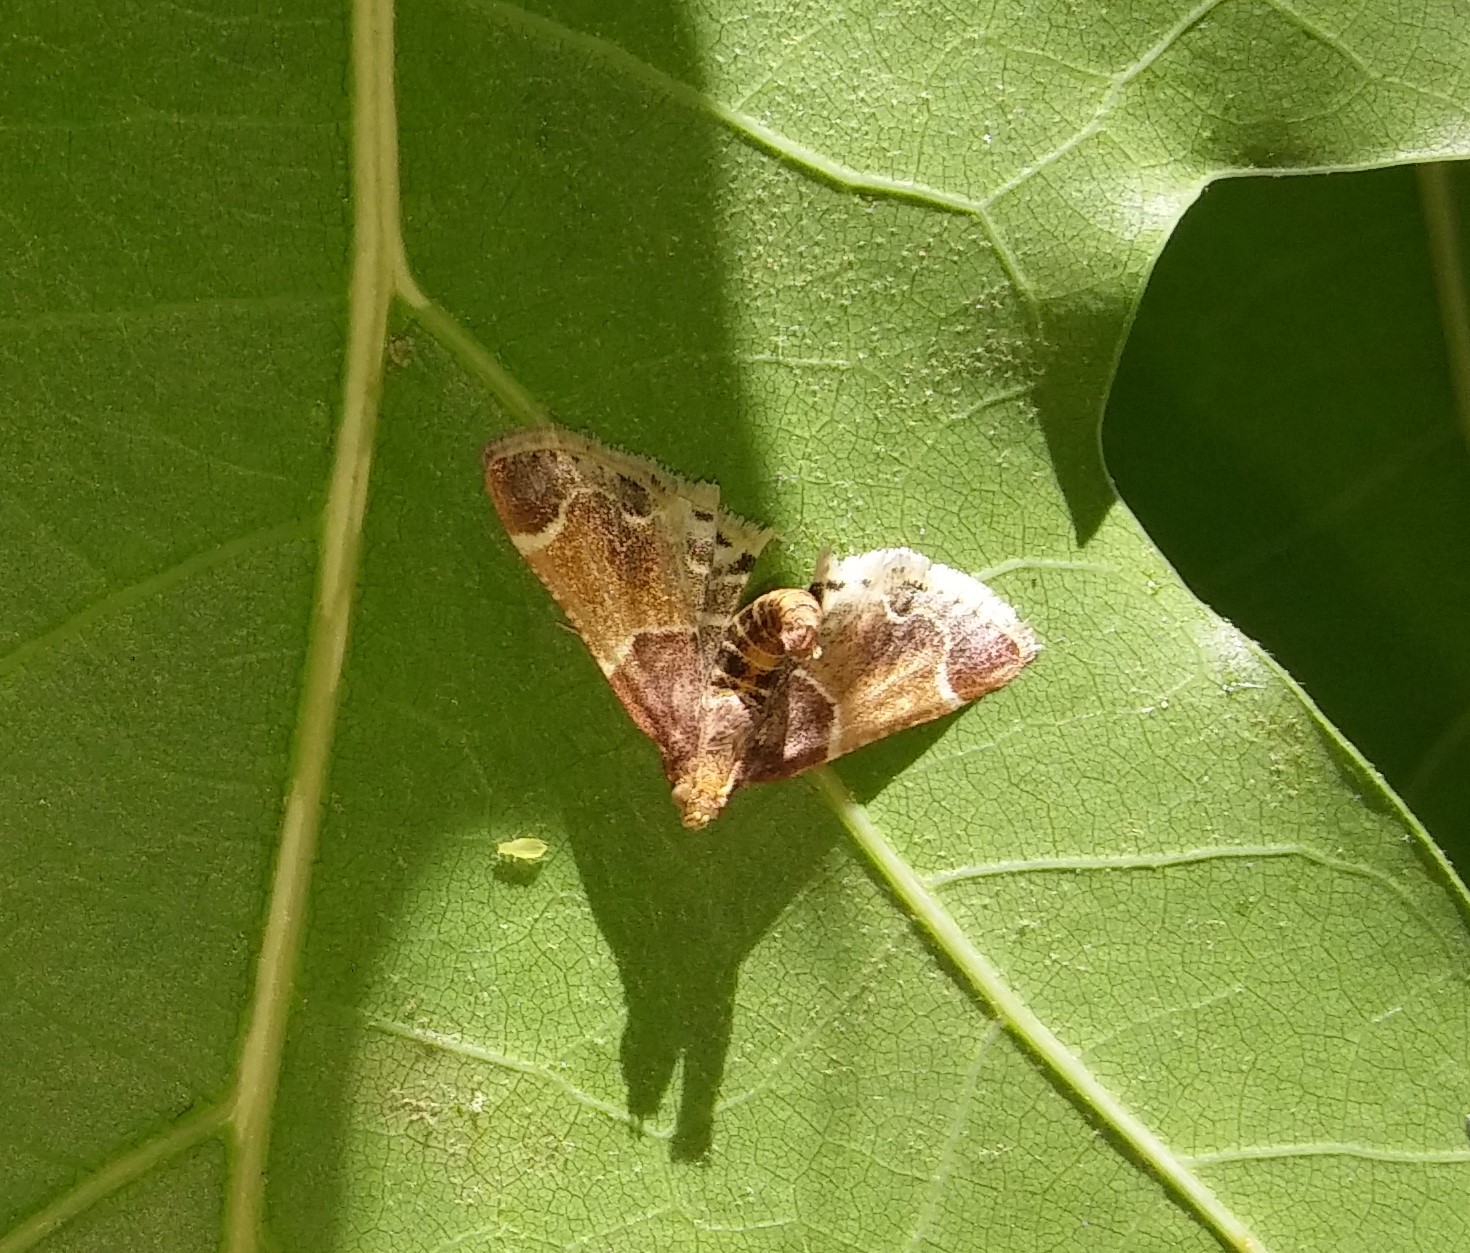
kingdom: Animalia
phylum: Arthropoda
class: Insecta
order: Lepidoptera
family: Pyralidae
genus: Pyralis
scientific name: Pyralis farinalis
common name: Meal moth
